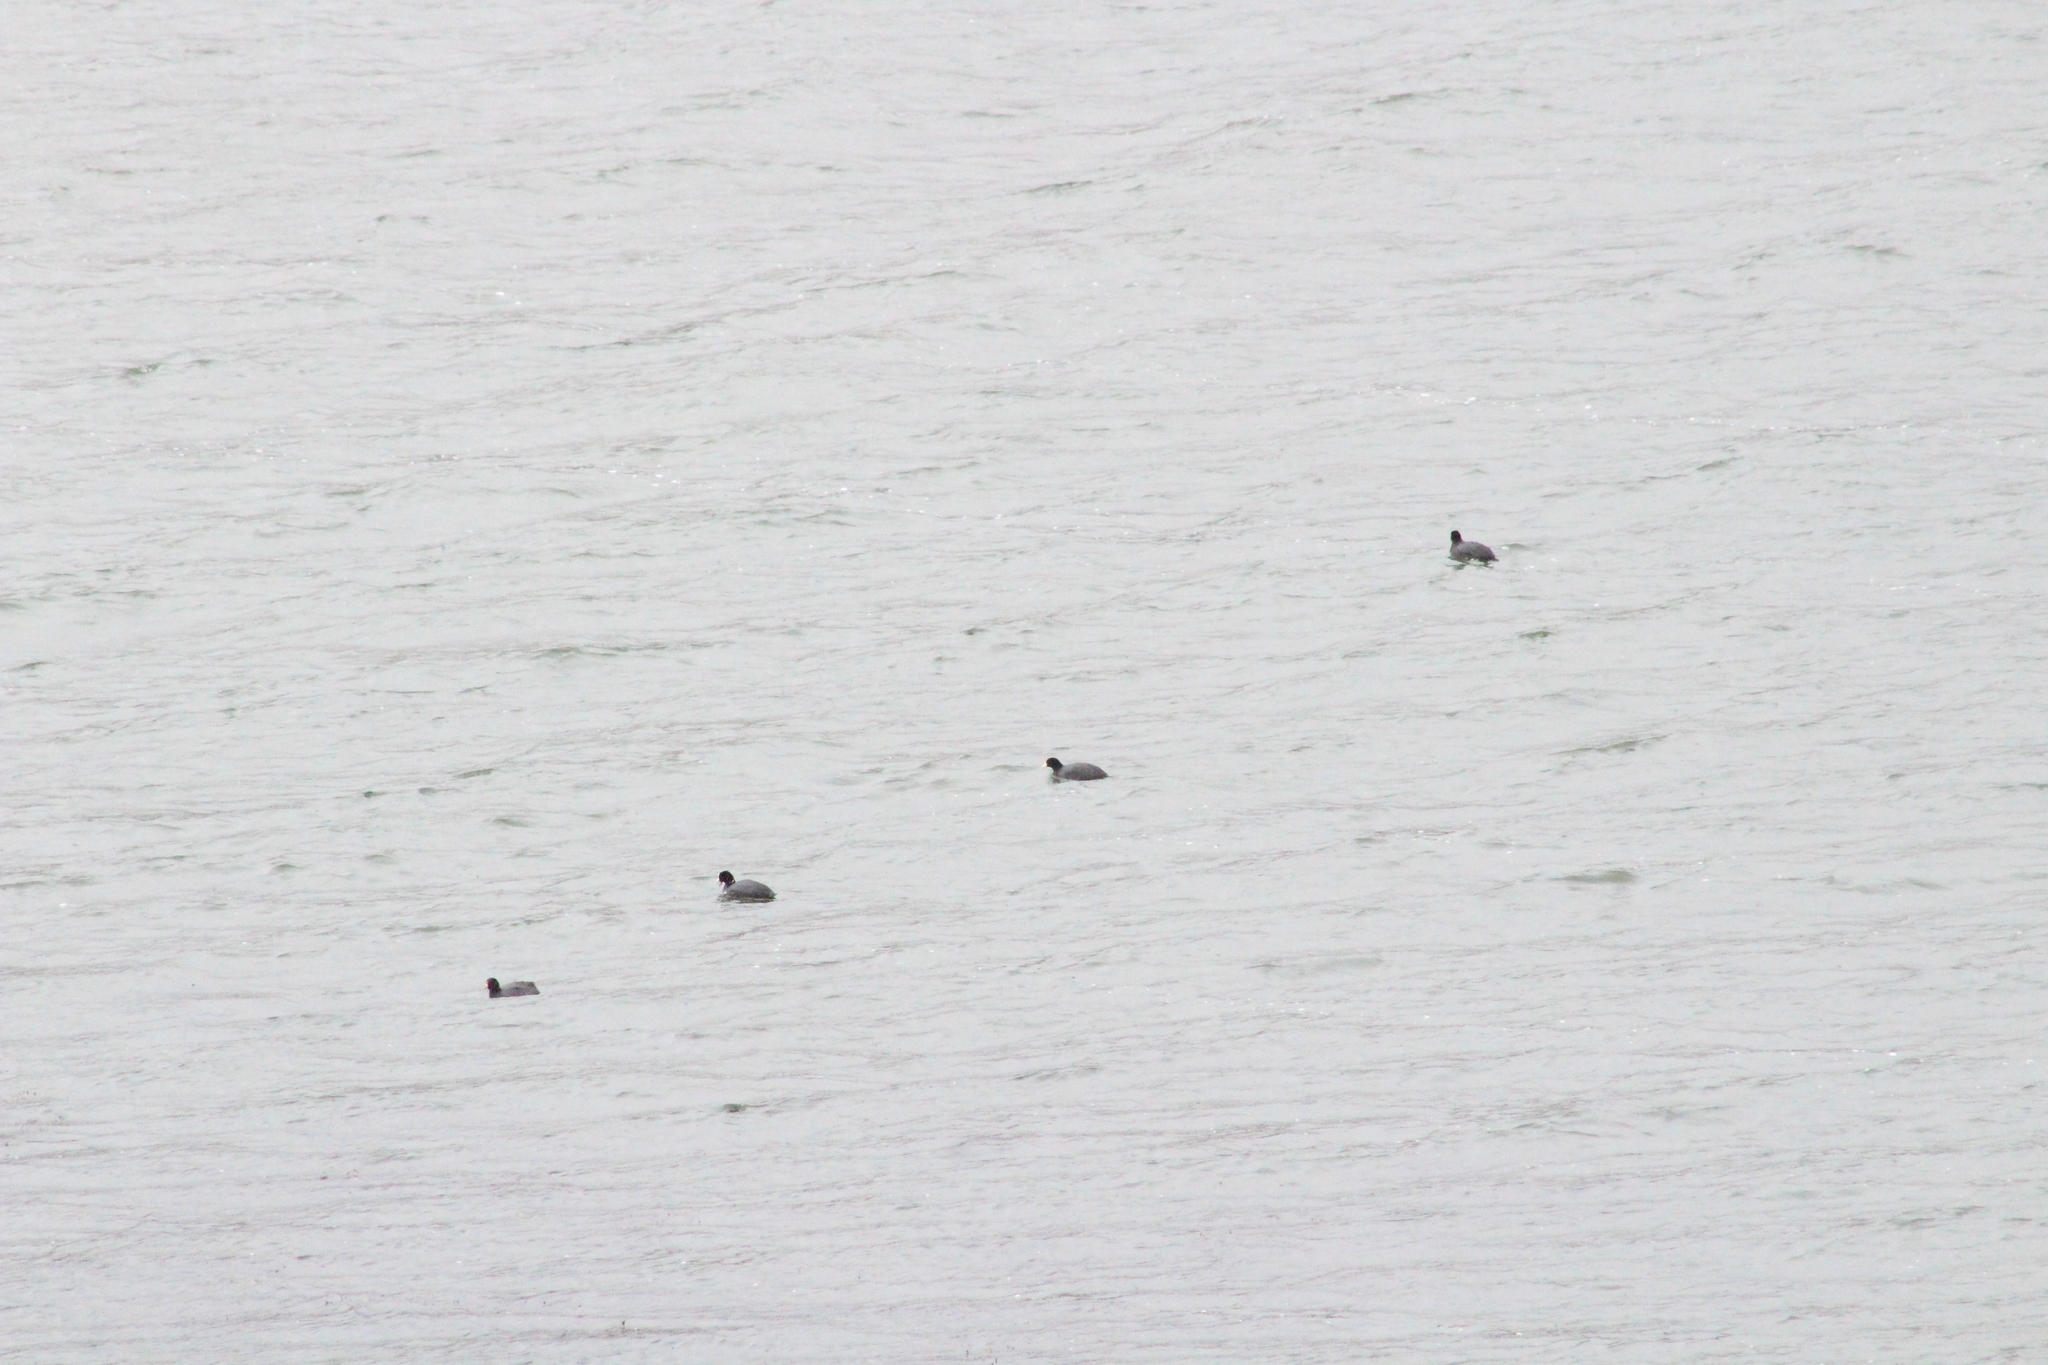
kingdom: Animalia
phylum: Chordata
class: Aves
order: Gruiformes
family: Rallidae
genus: Fulica
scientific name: Fulica ardesiaca
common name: Andean coot
